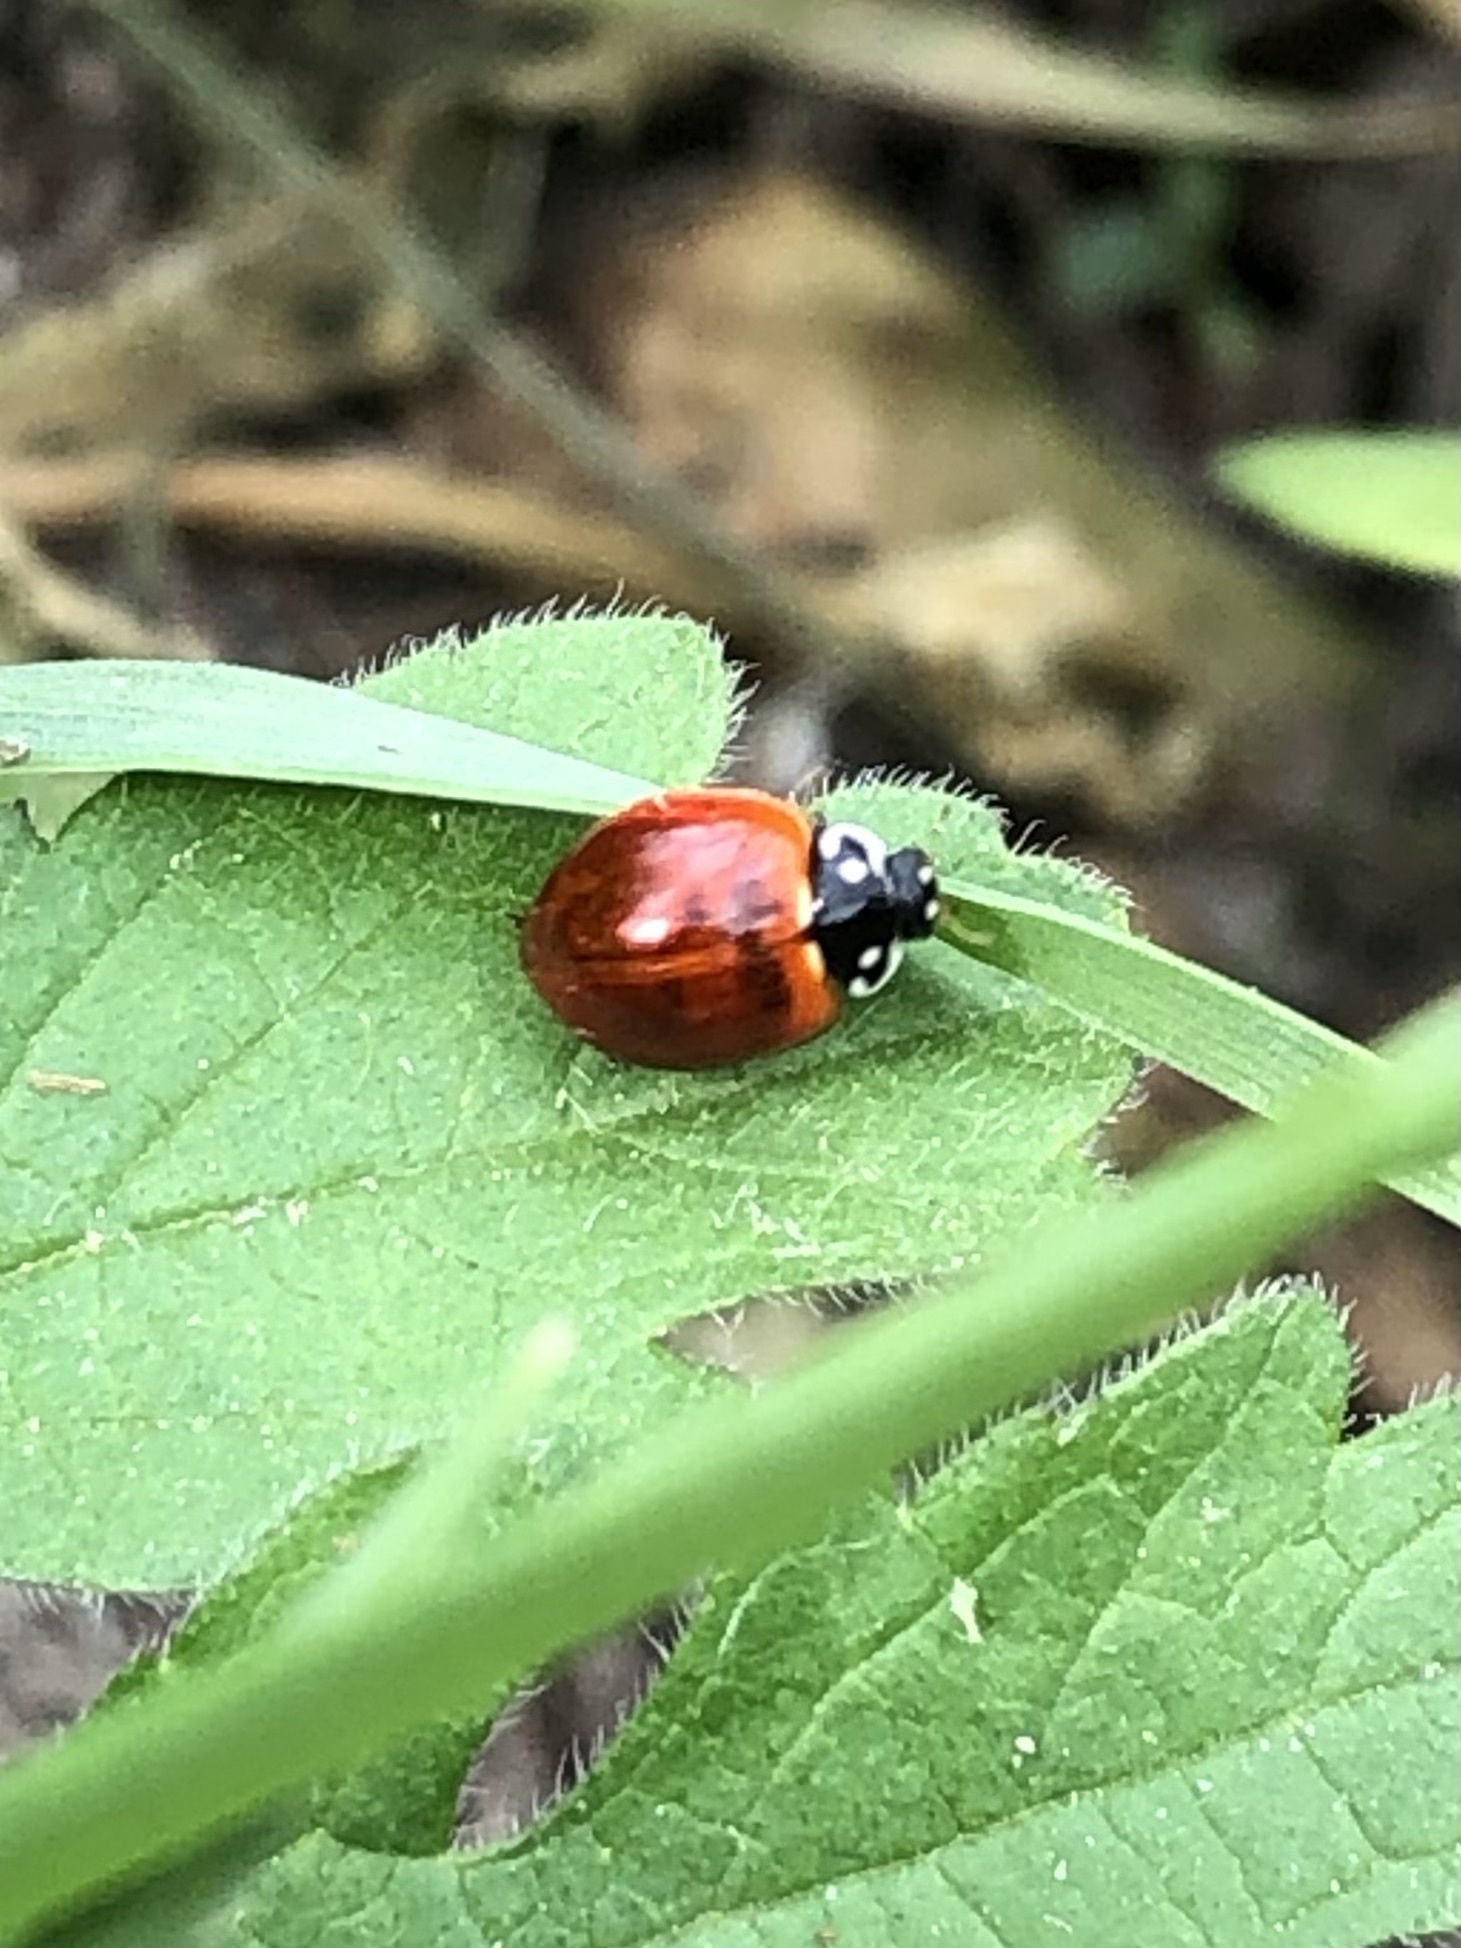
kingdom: Animalia
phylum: Arthropoda
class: Insecta
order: Coleoptera
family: Coccinellidae
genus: Cycloneda
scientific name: Cycloneda sanguinea
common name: Ladybird beetle
